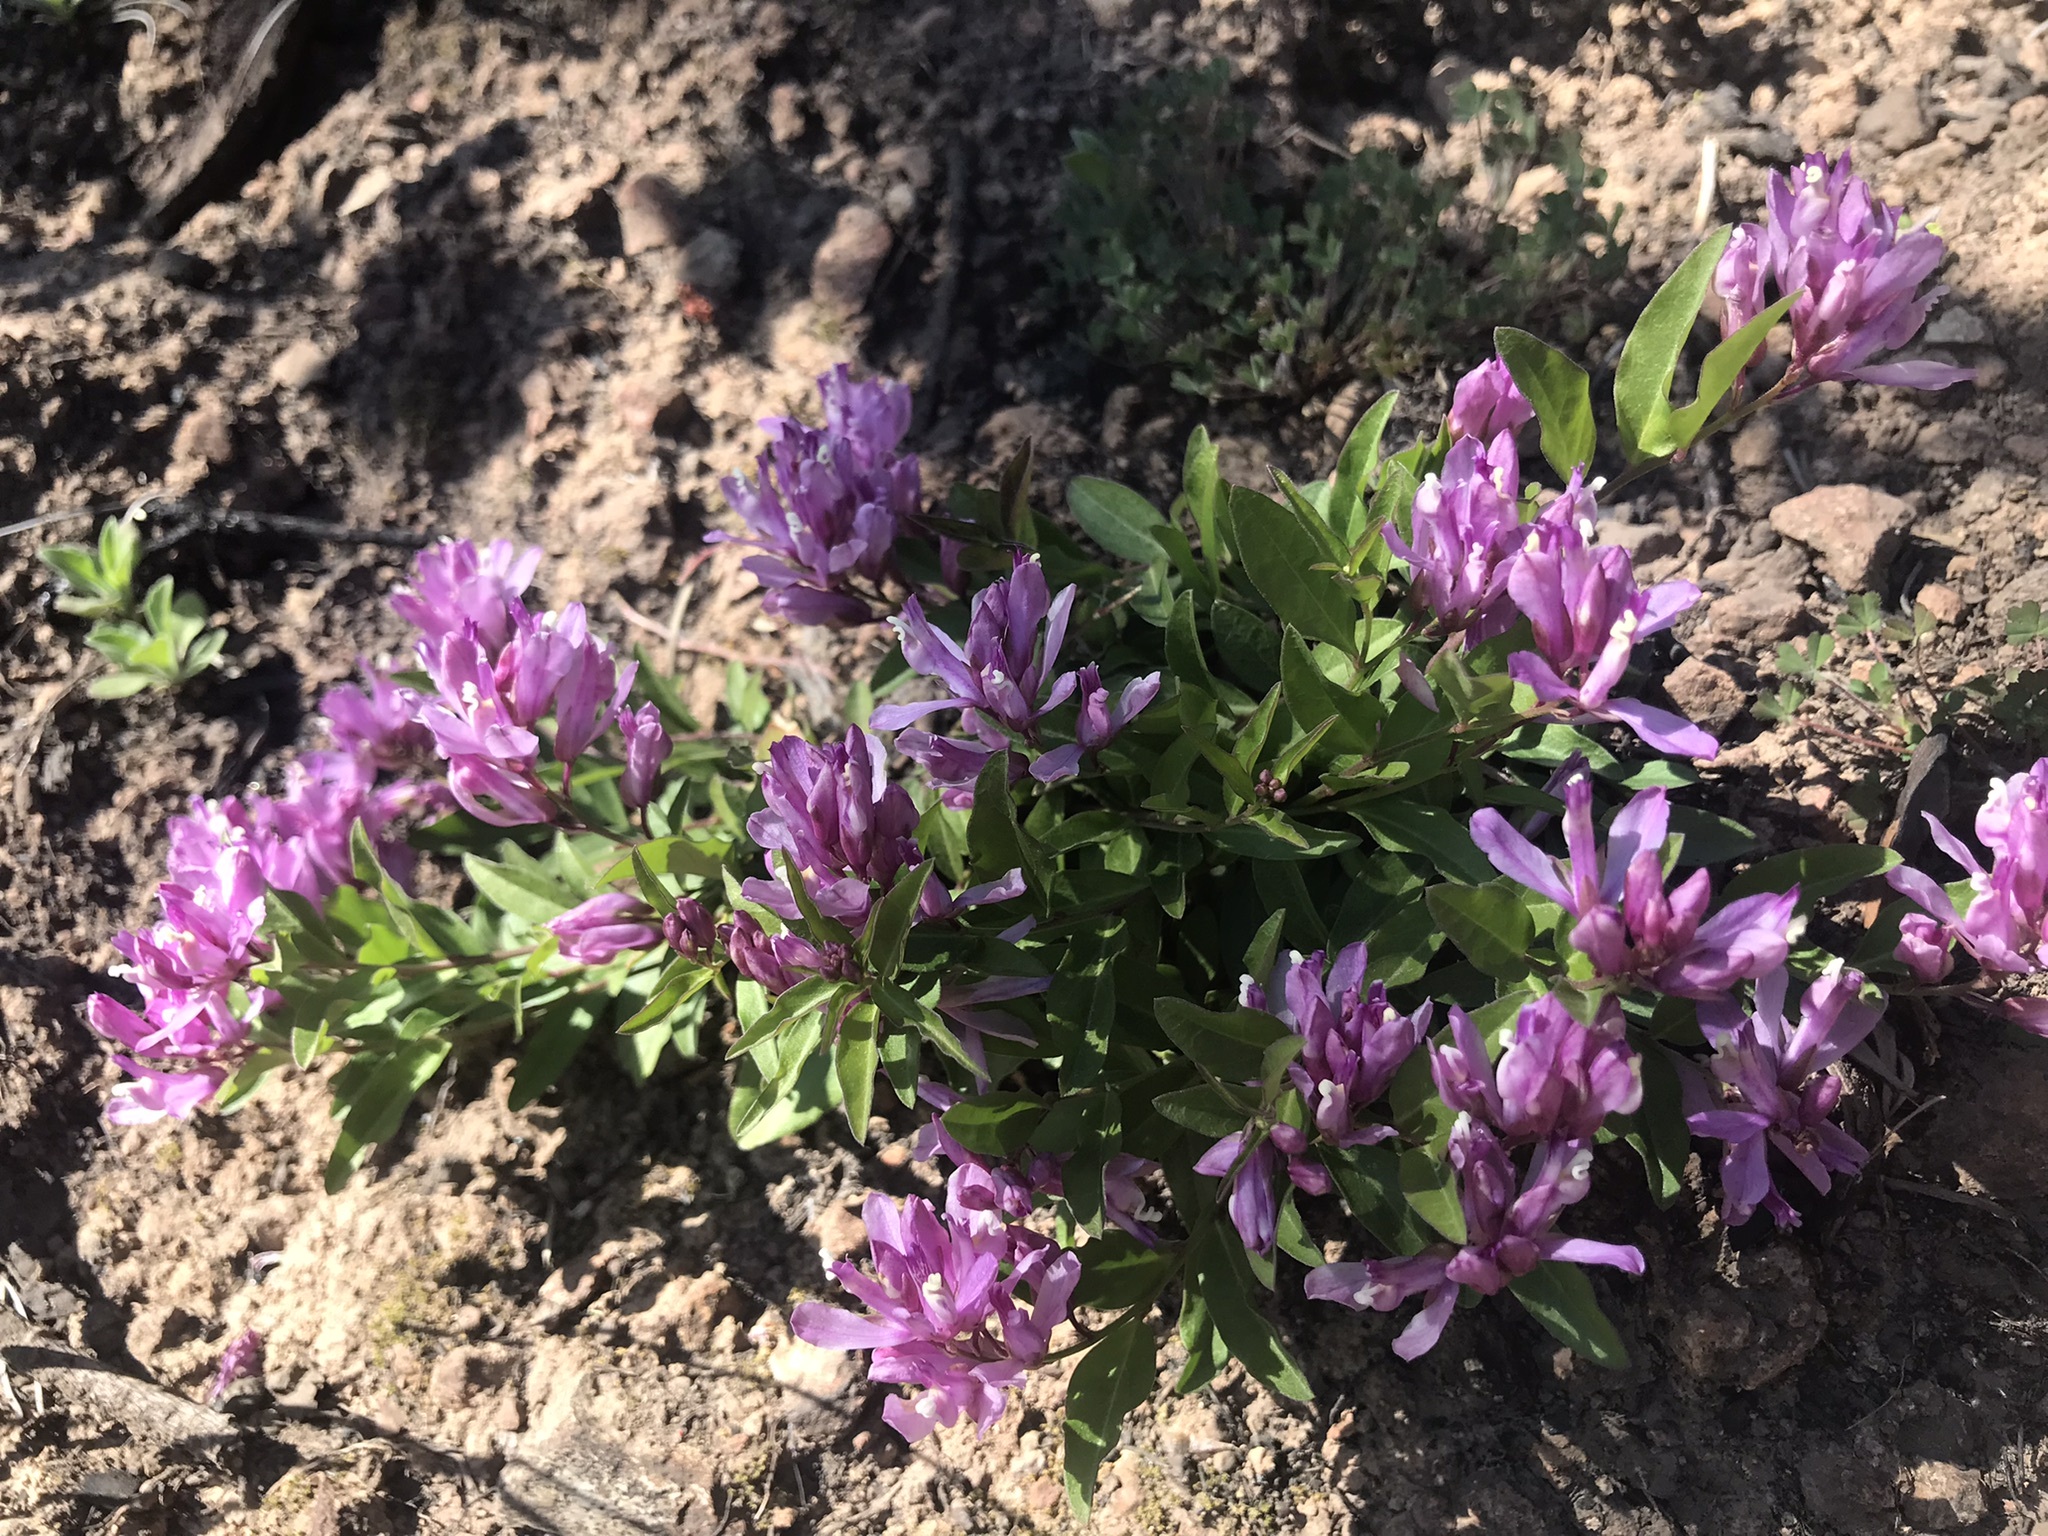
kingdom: Plantae
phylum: Tracheophyta
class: Magnoliopsida
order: Fabales
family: Polygalaceae
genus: Rhinotropis
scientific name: Rhinotropis californica
